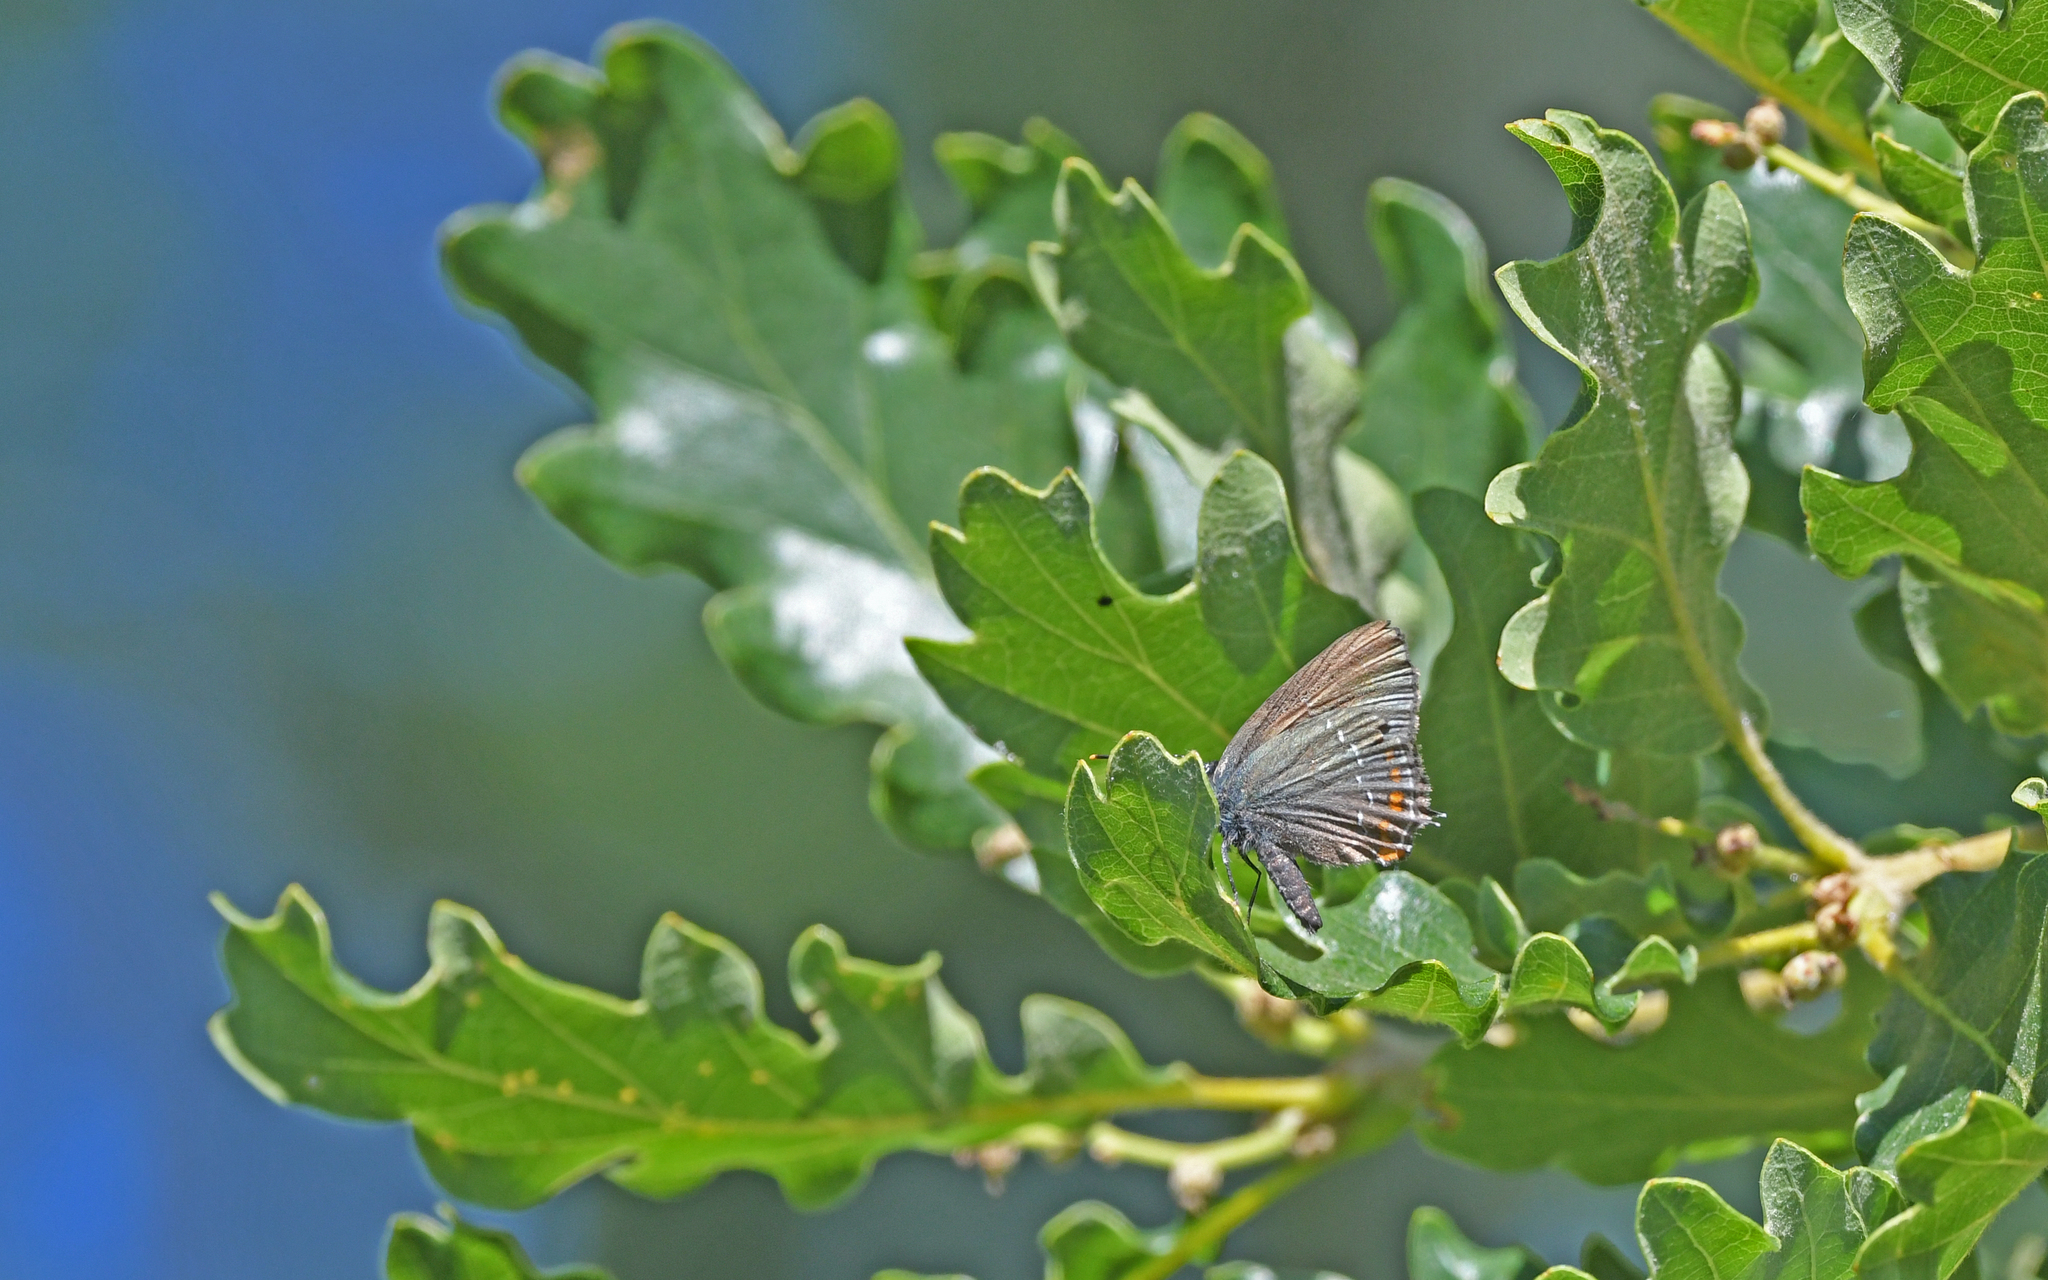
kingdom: Animalia
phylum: Arthropoda
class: Insecta
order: Lepidoptera
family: Lycaenidae
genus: Nordmannia
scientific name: Nordmannia ilicis
